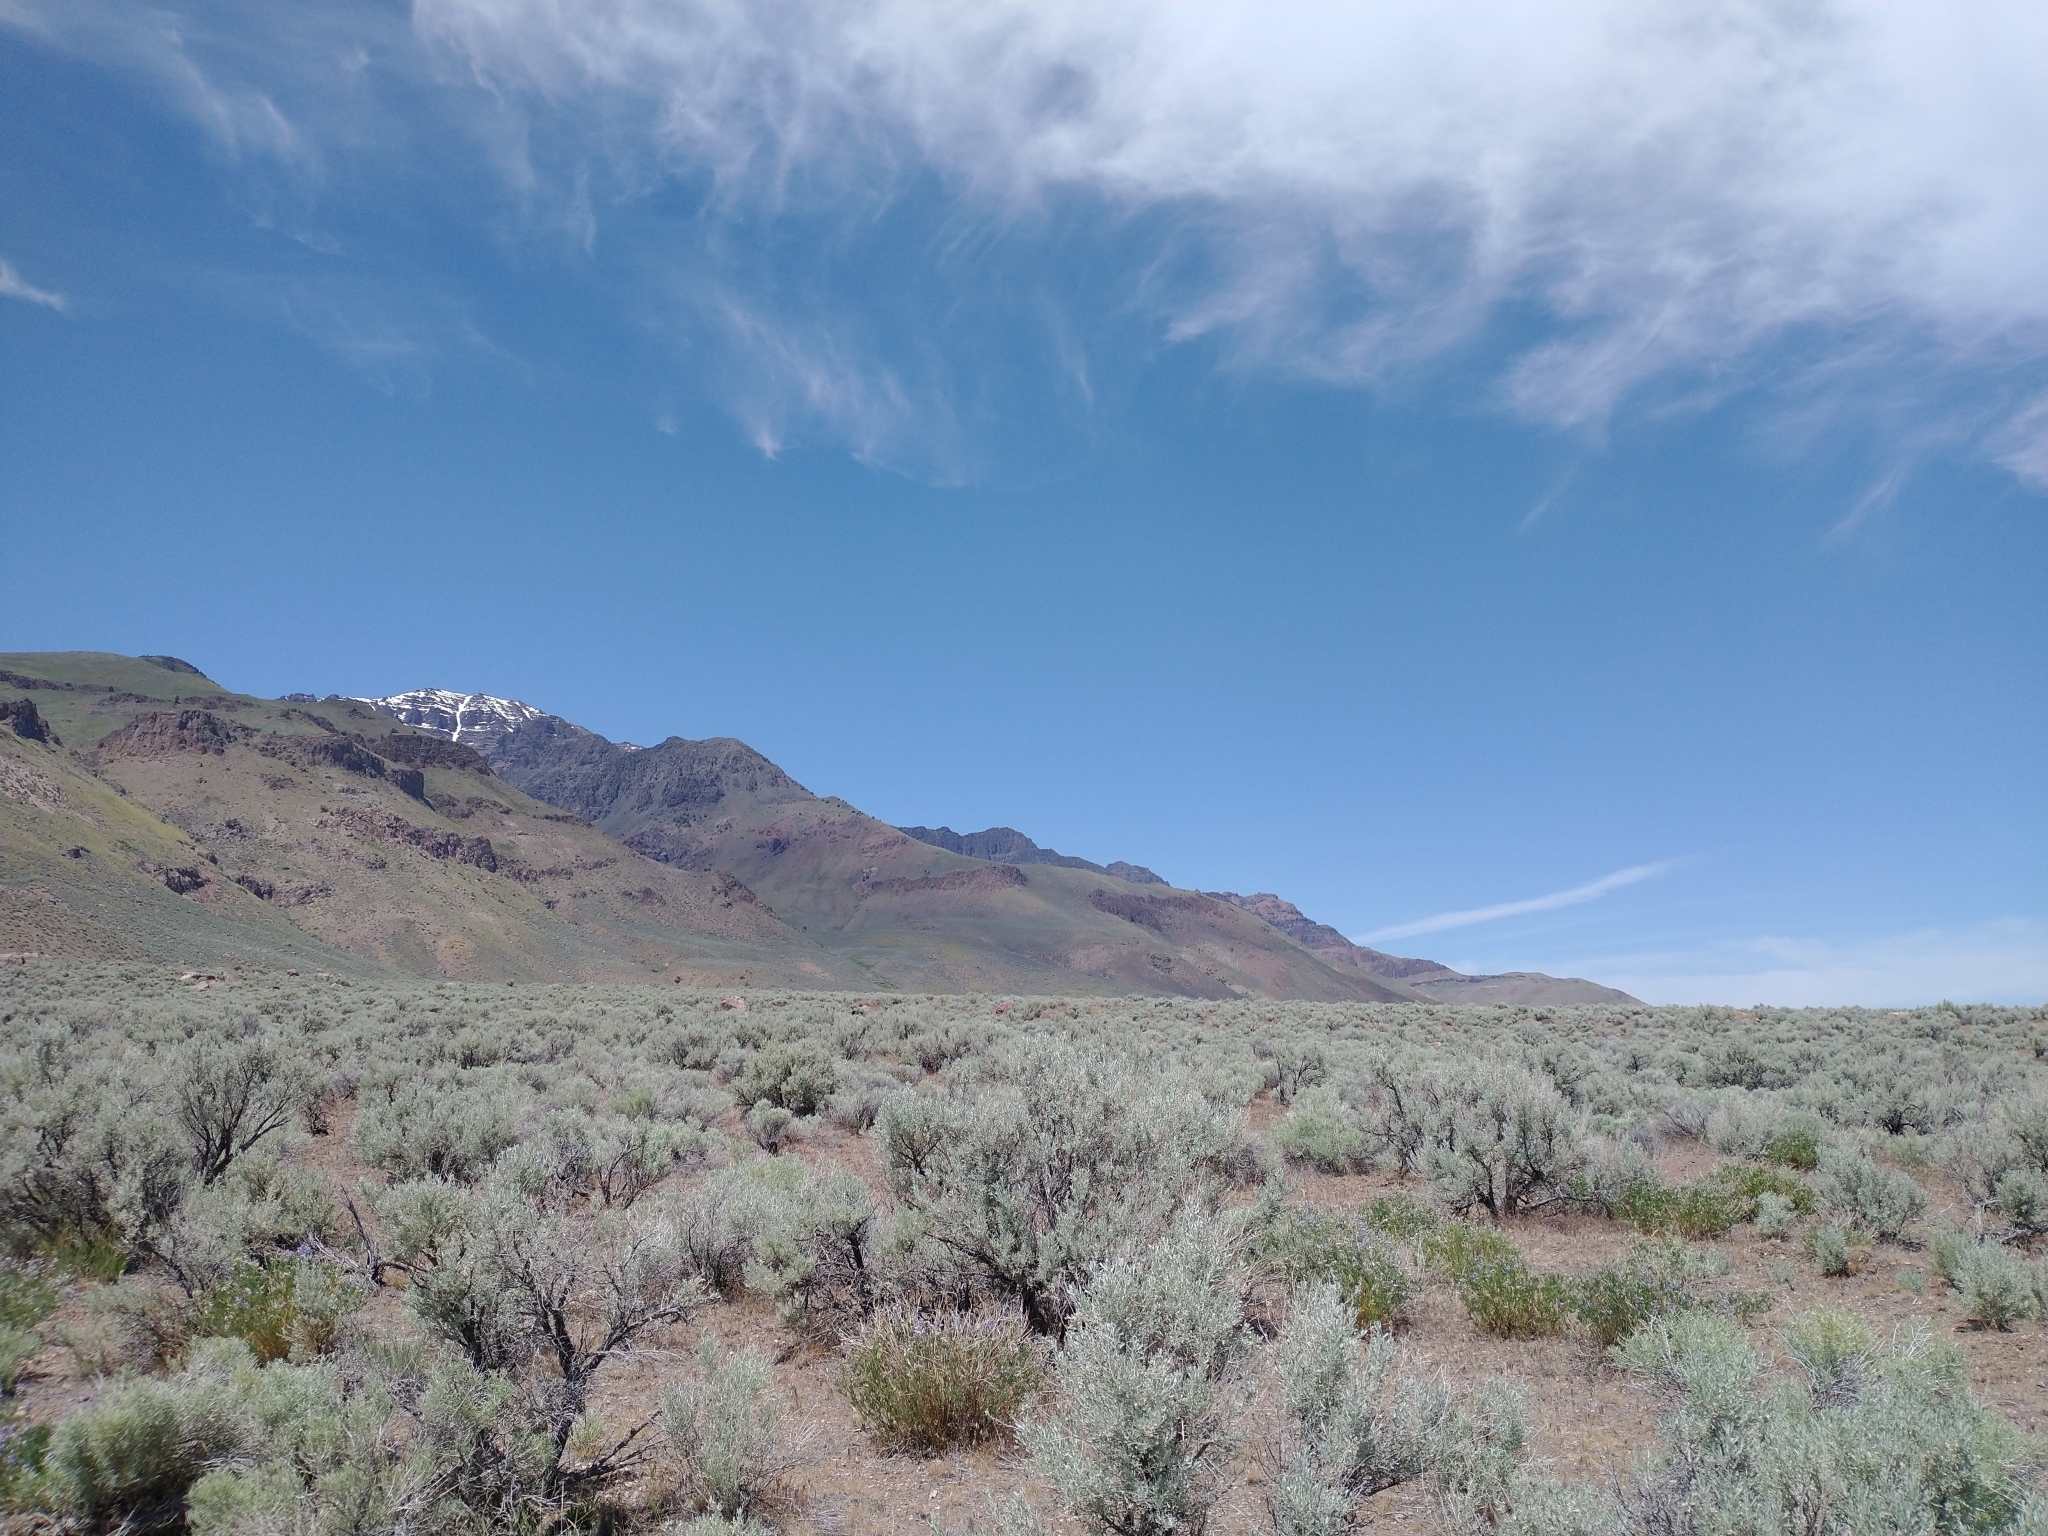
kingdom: Plantae
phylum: Tracheophyta
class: Magnoliopsida
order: Asterales
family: Asteraceae
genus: Artemisia
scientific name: Artemisia tridentata
